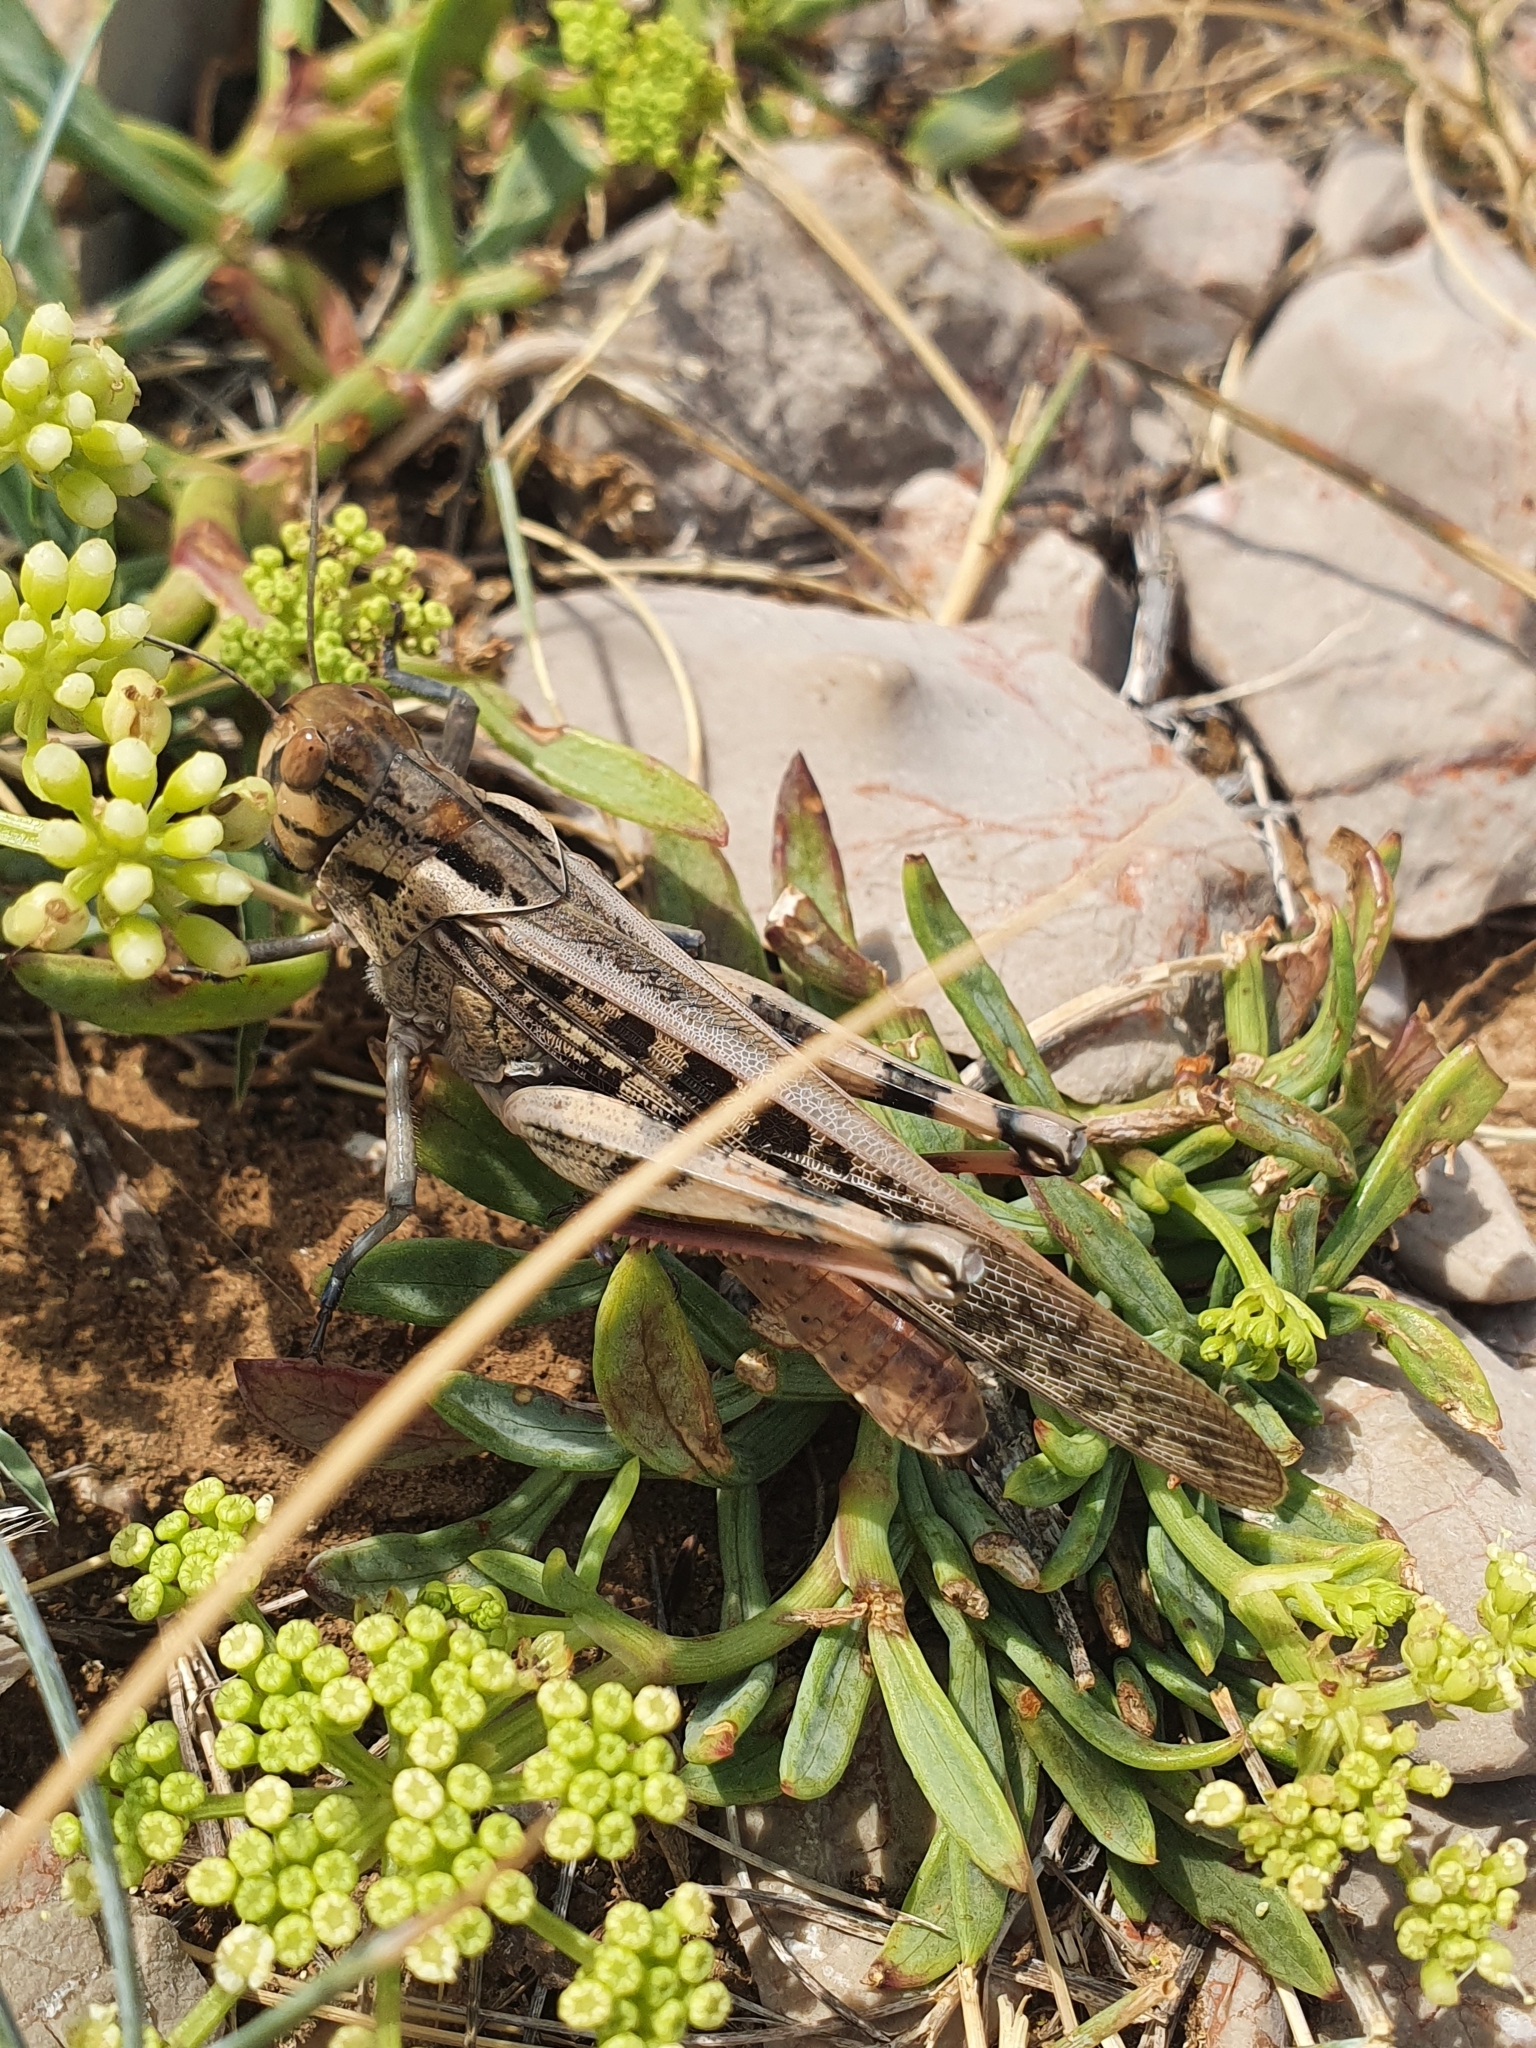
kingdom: Animalia
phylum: Arthropoda
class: Insecta
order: Orthoptera
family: Acrididae
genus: Locusta
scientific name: Locusta migratoria
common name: Migratory locust
